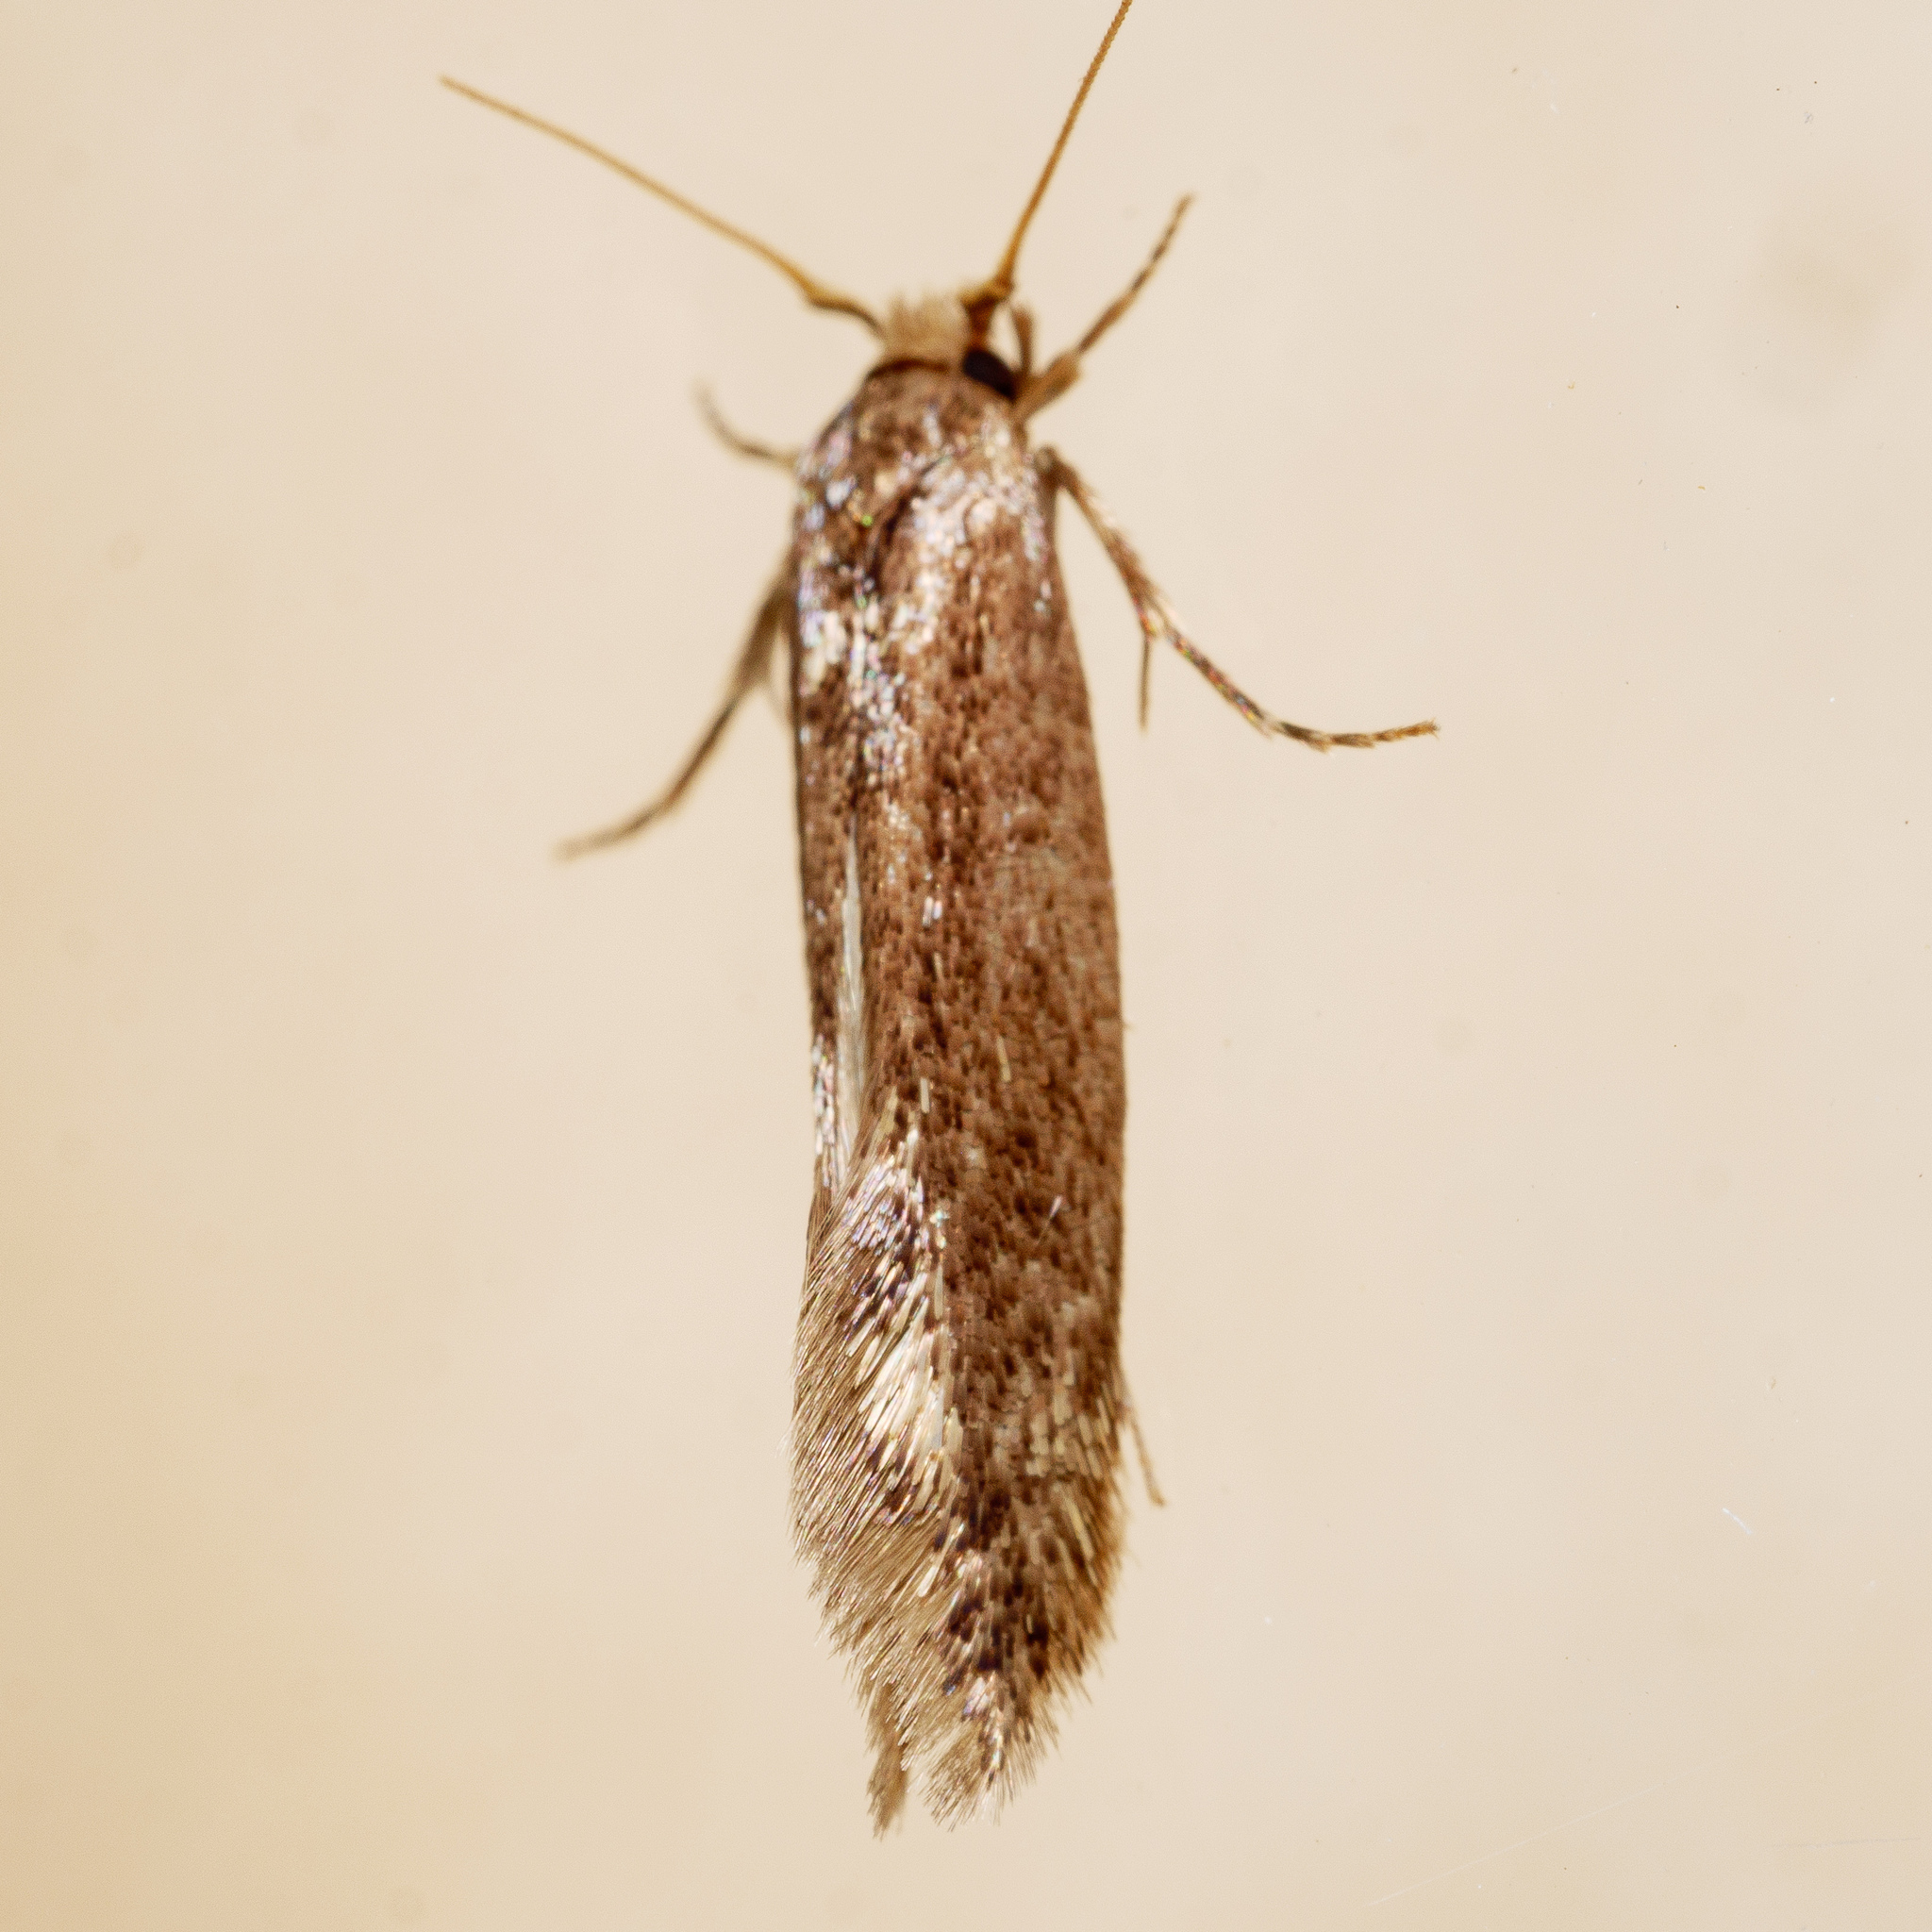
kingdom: Animalia
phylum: Arthropoda
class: Insecta
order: Lepidoptera
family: Tineidae
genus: Opogona
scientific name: Opogona omoscopa
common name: Moth
